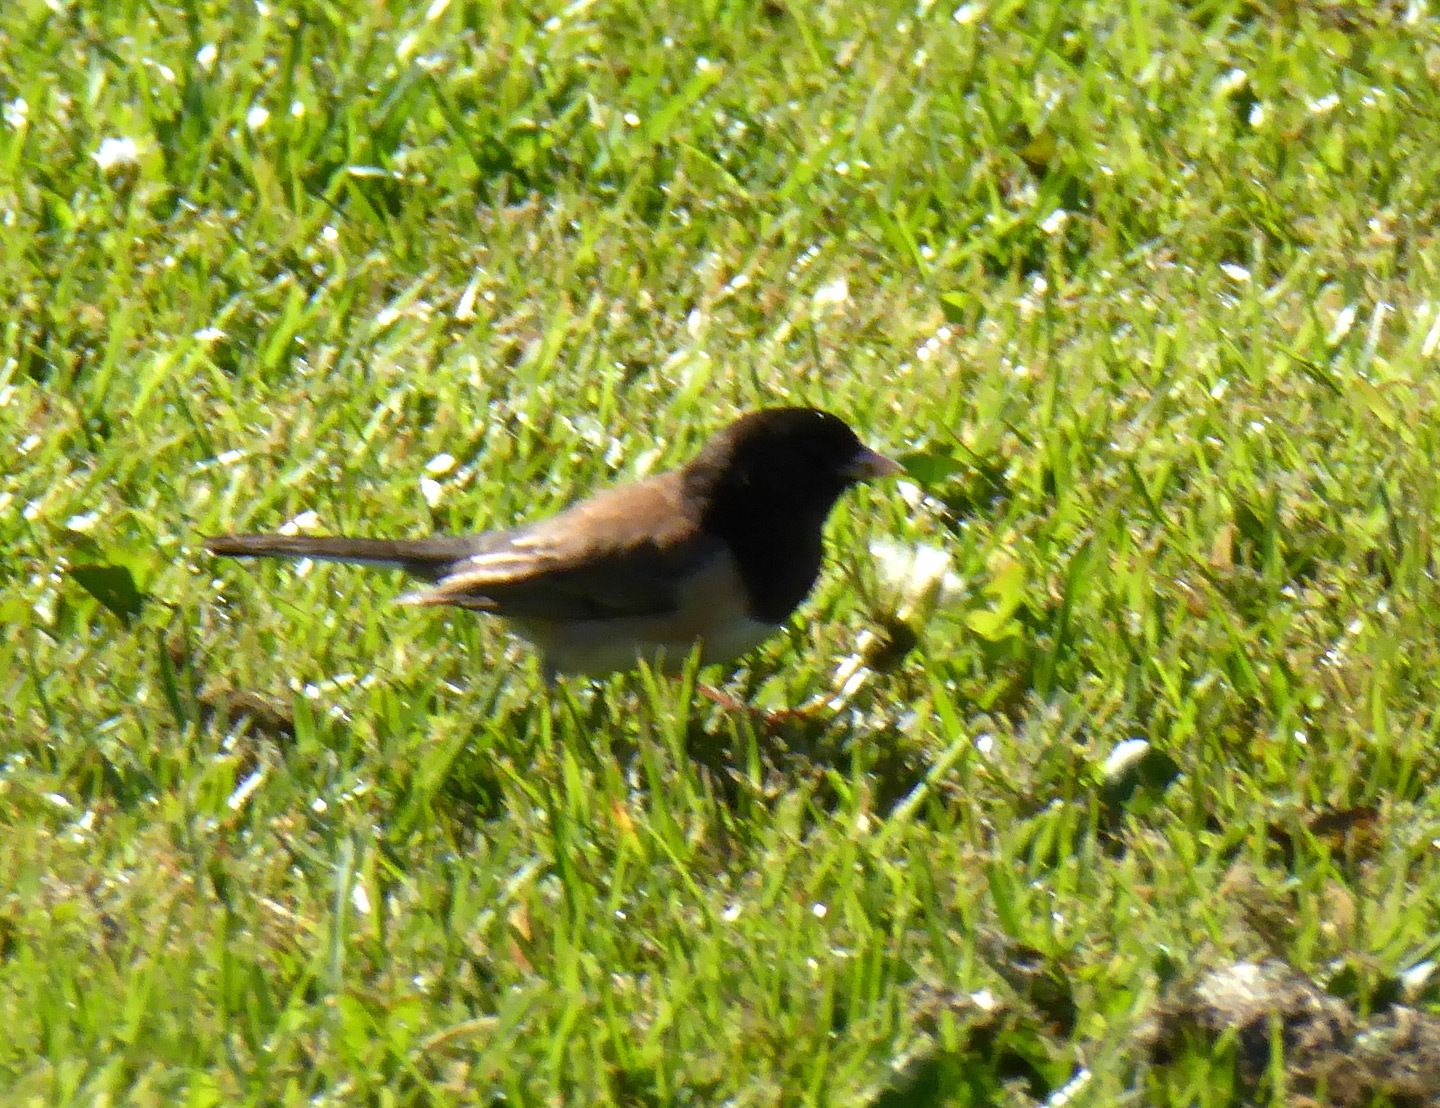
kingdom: Animalia
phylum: Chordata
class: Aves
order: Passeriformes
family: Passerellidae
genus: Junco
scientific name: Junco hyemalis
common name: Dark-eyed junco
